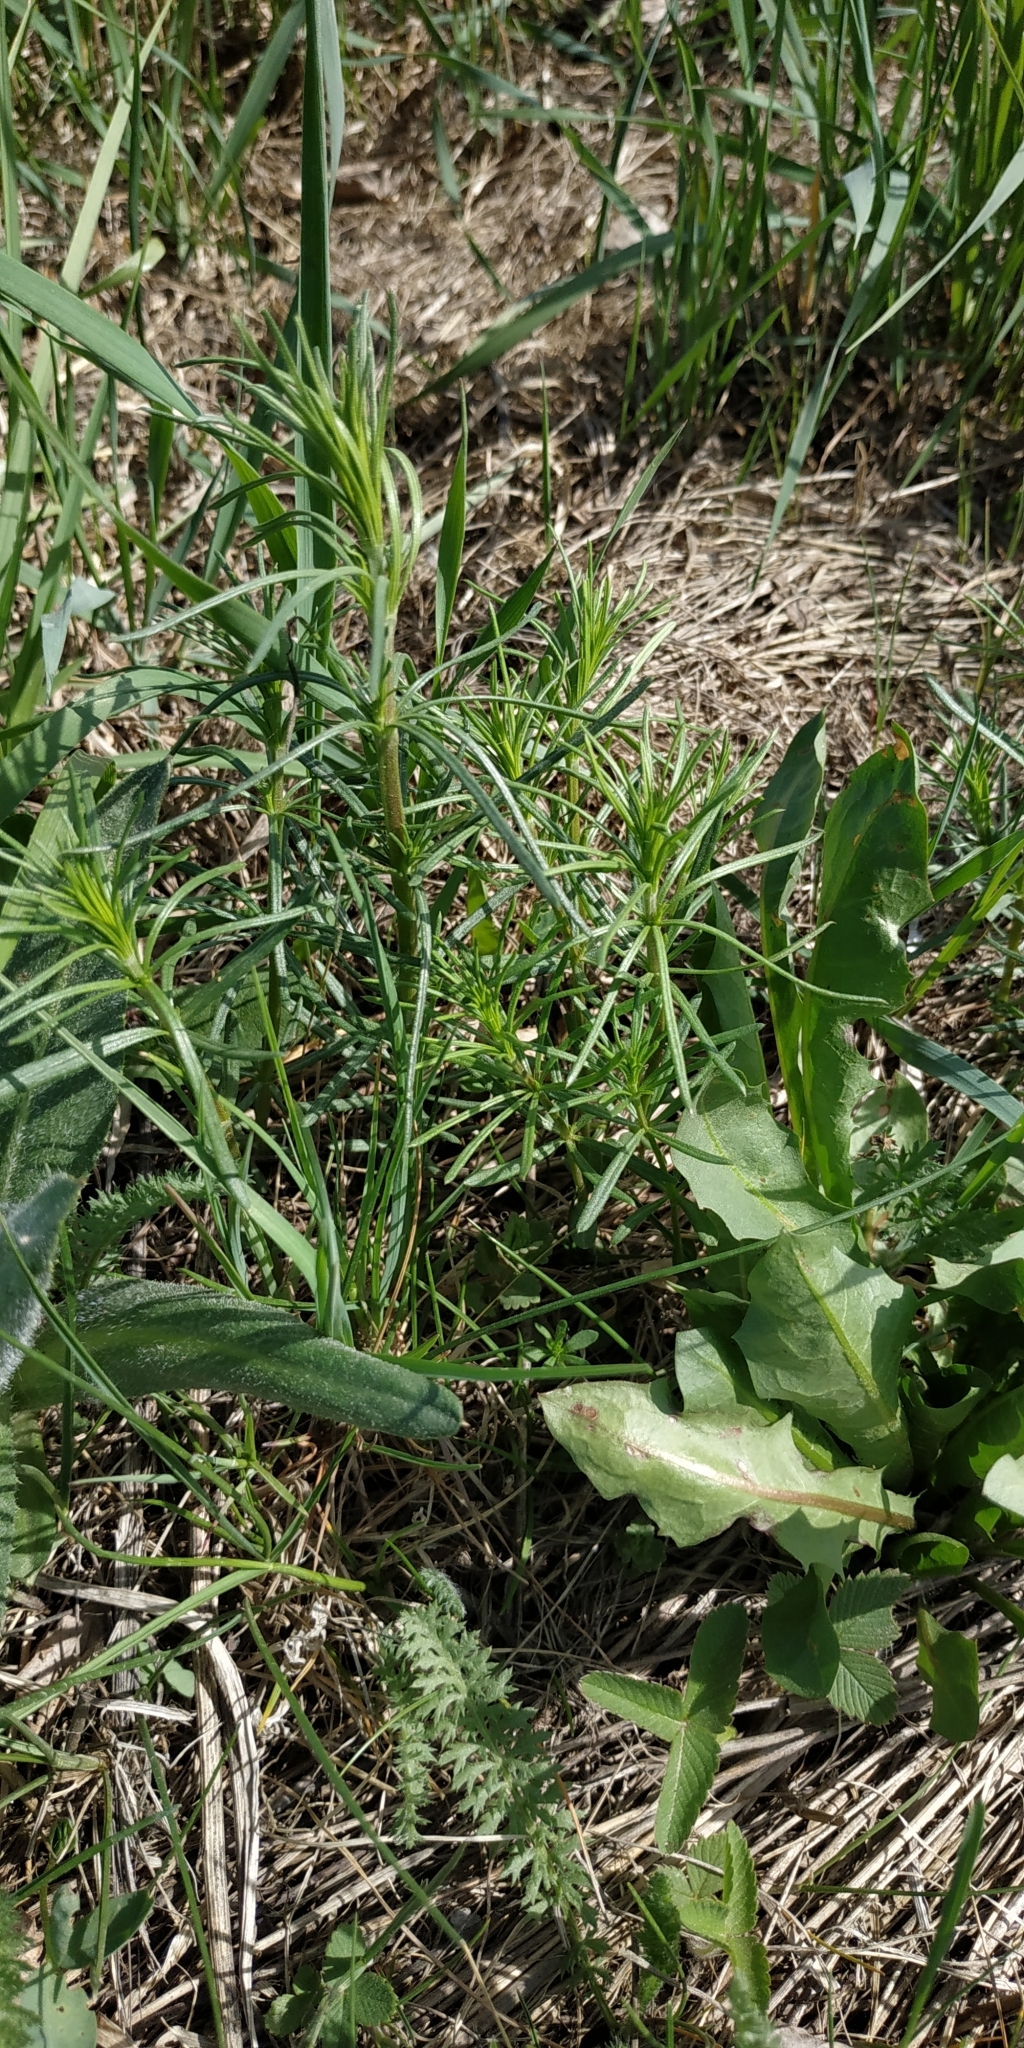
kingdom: Plantae
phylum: Tracheophyta
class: Magnoliopsida
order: Gentianales
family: Rubiaceae
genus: Galium
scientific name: Galium verum
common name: Lady's bedstraw
